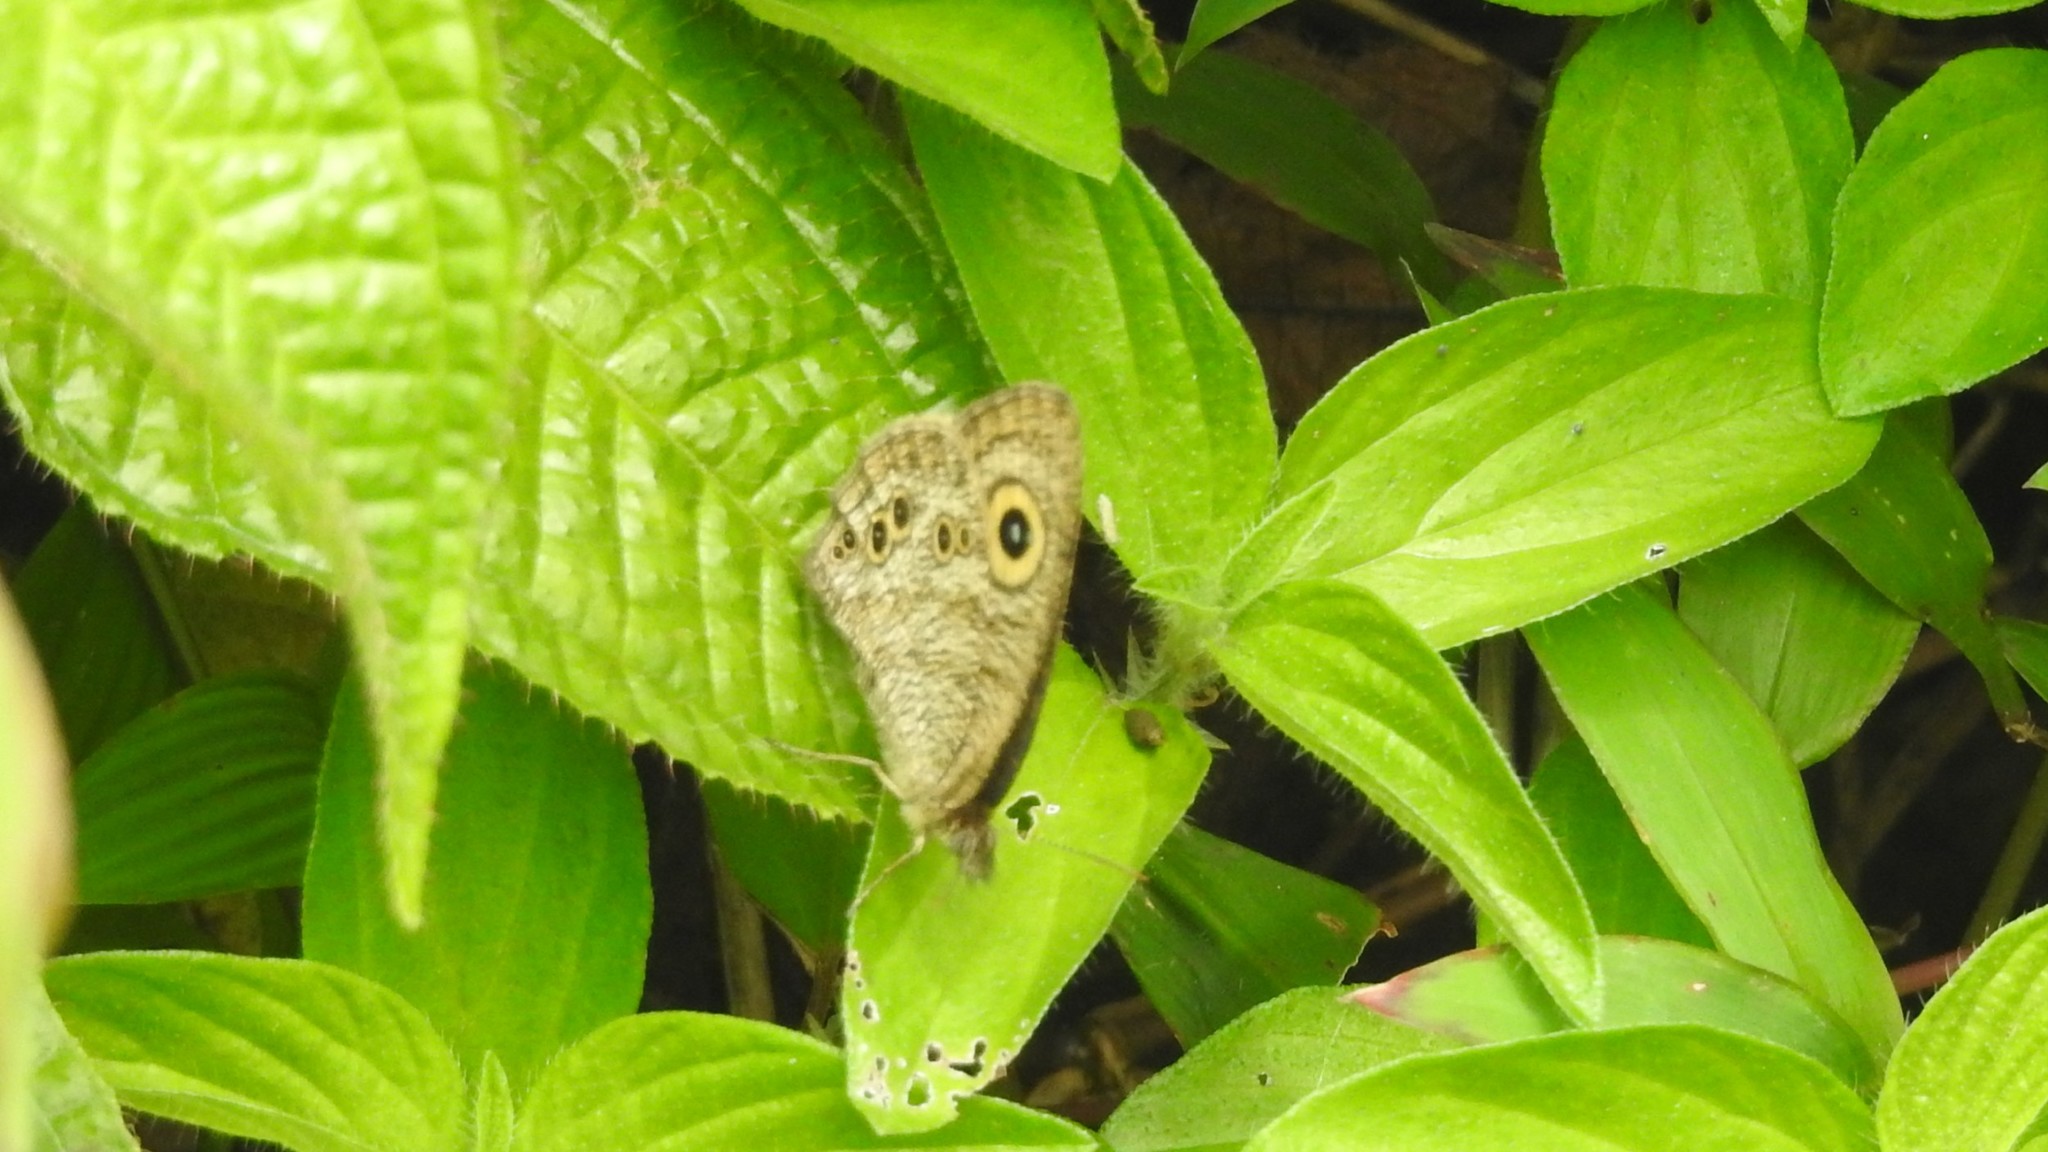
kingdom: Animalia
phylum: Arthropoda
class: Insecta
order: Lepidoptera
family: Nymphalidae
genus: Ypthima
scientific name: Ypthima baldus
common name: Common five-ring
